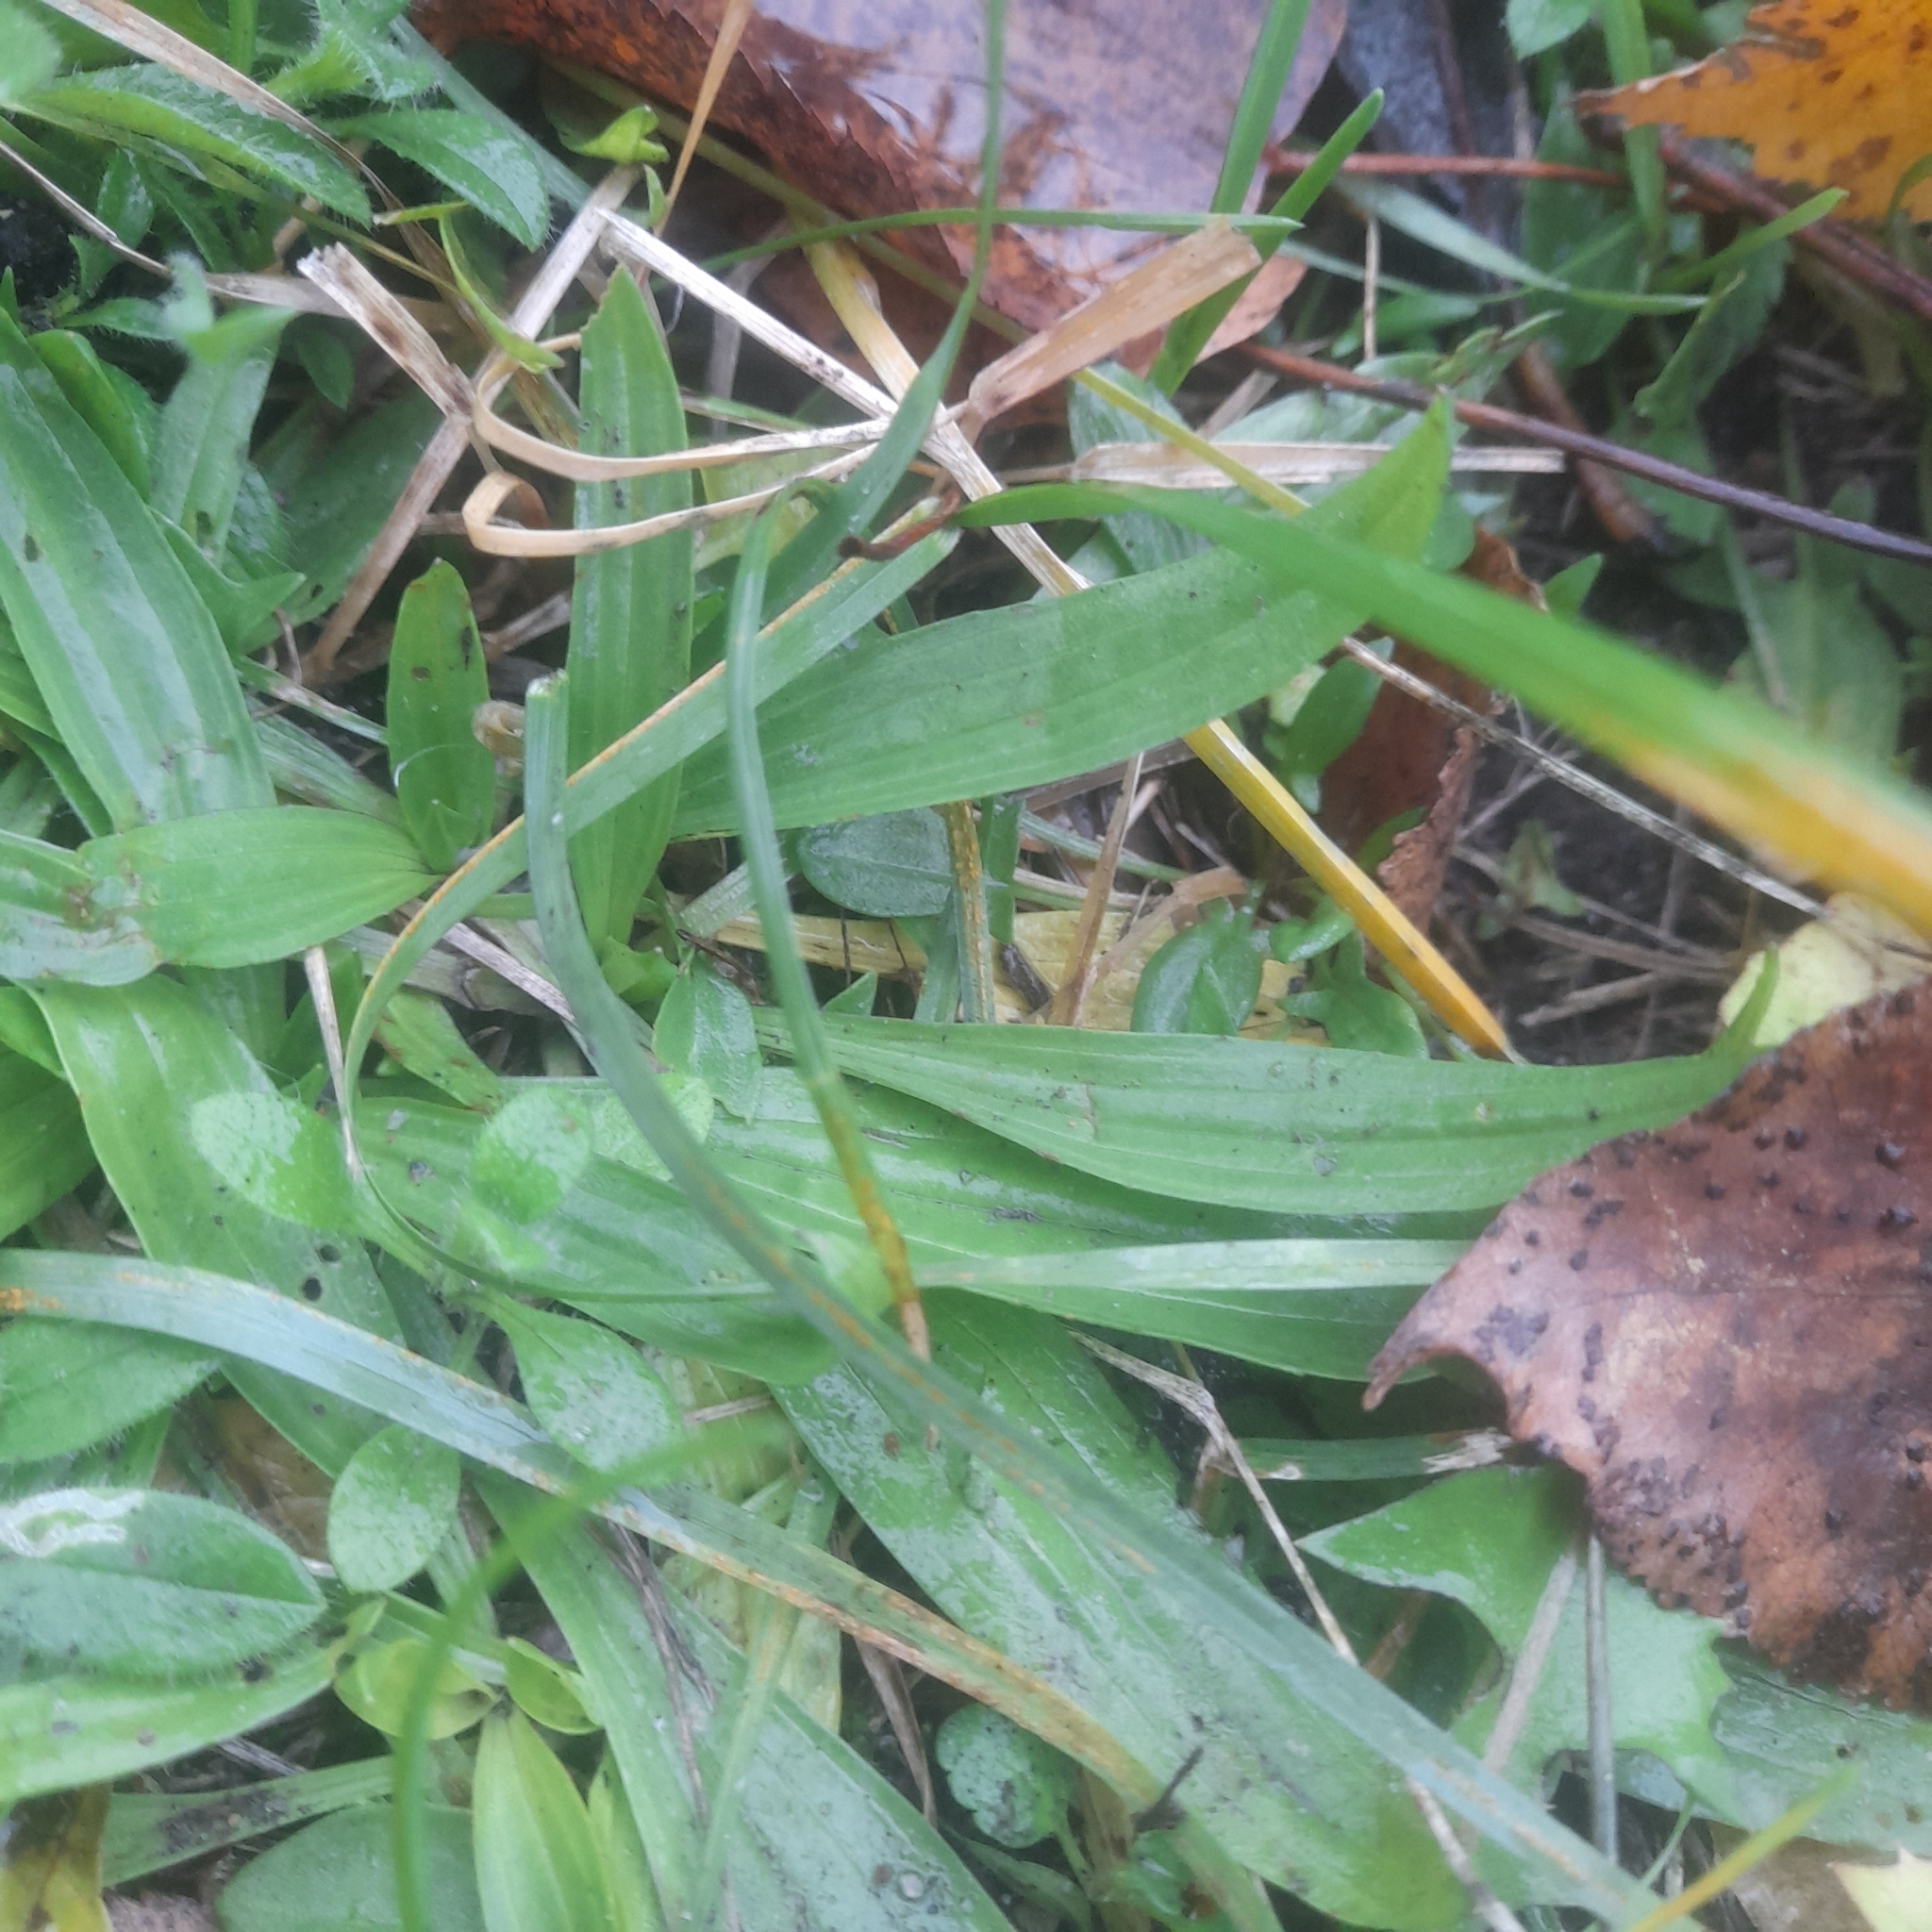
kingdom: Plantae
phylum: Tracheophyta
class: Magnoliopsida
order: Lamiales
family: Plantaginaceae
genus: Plantago
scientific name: Plantago lanceolata
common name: Ribwort plantain
